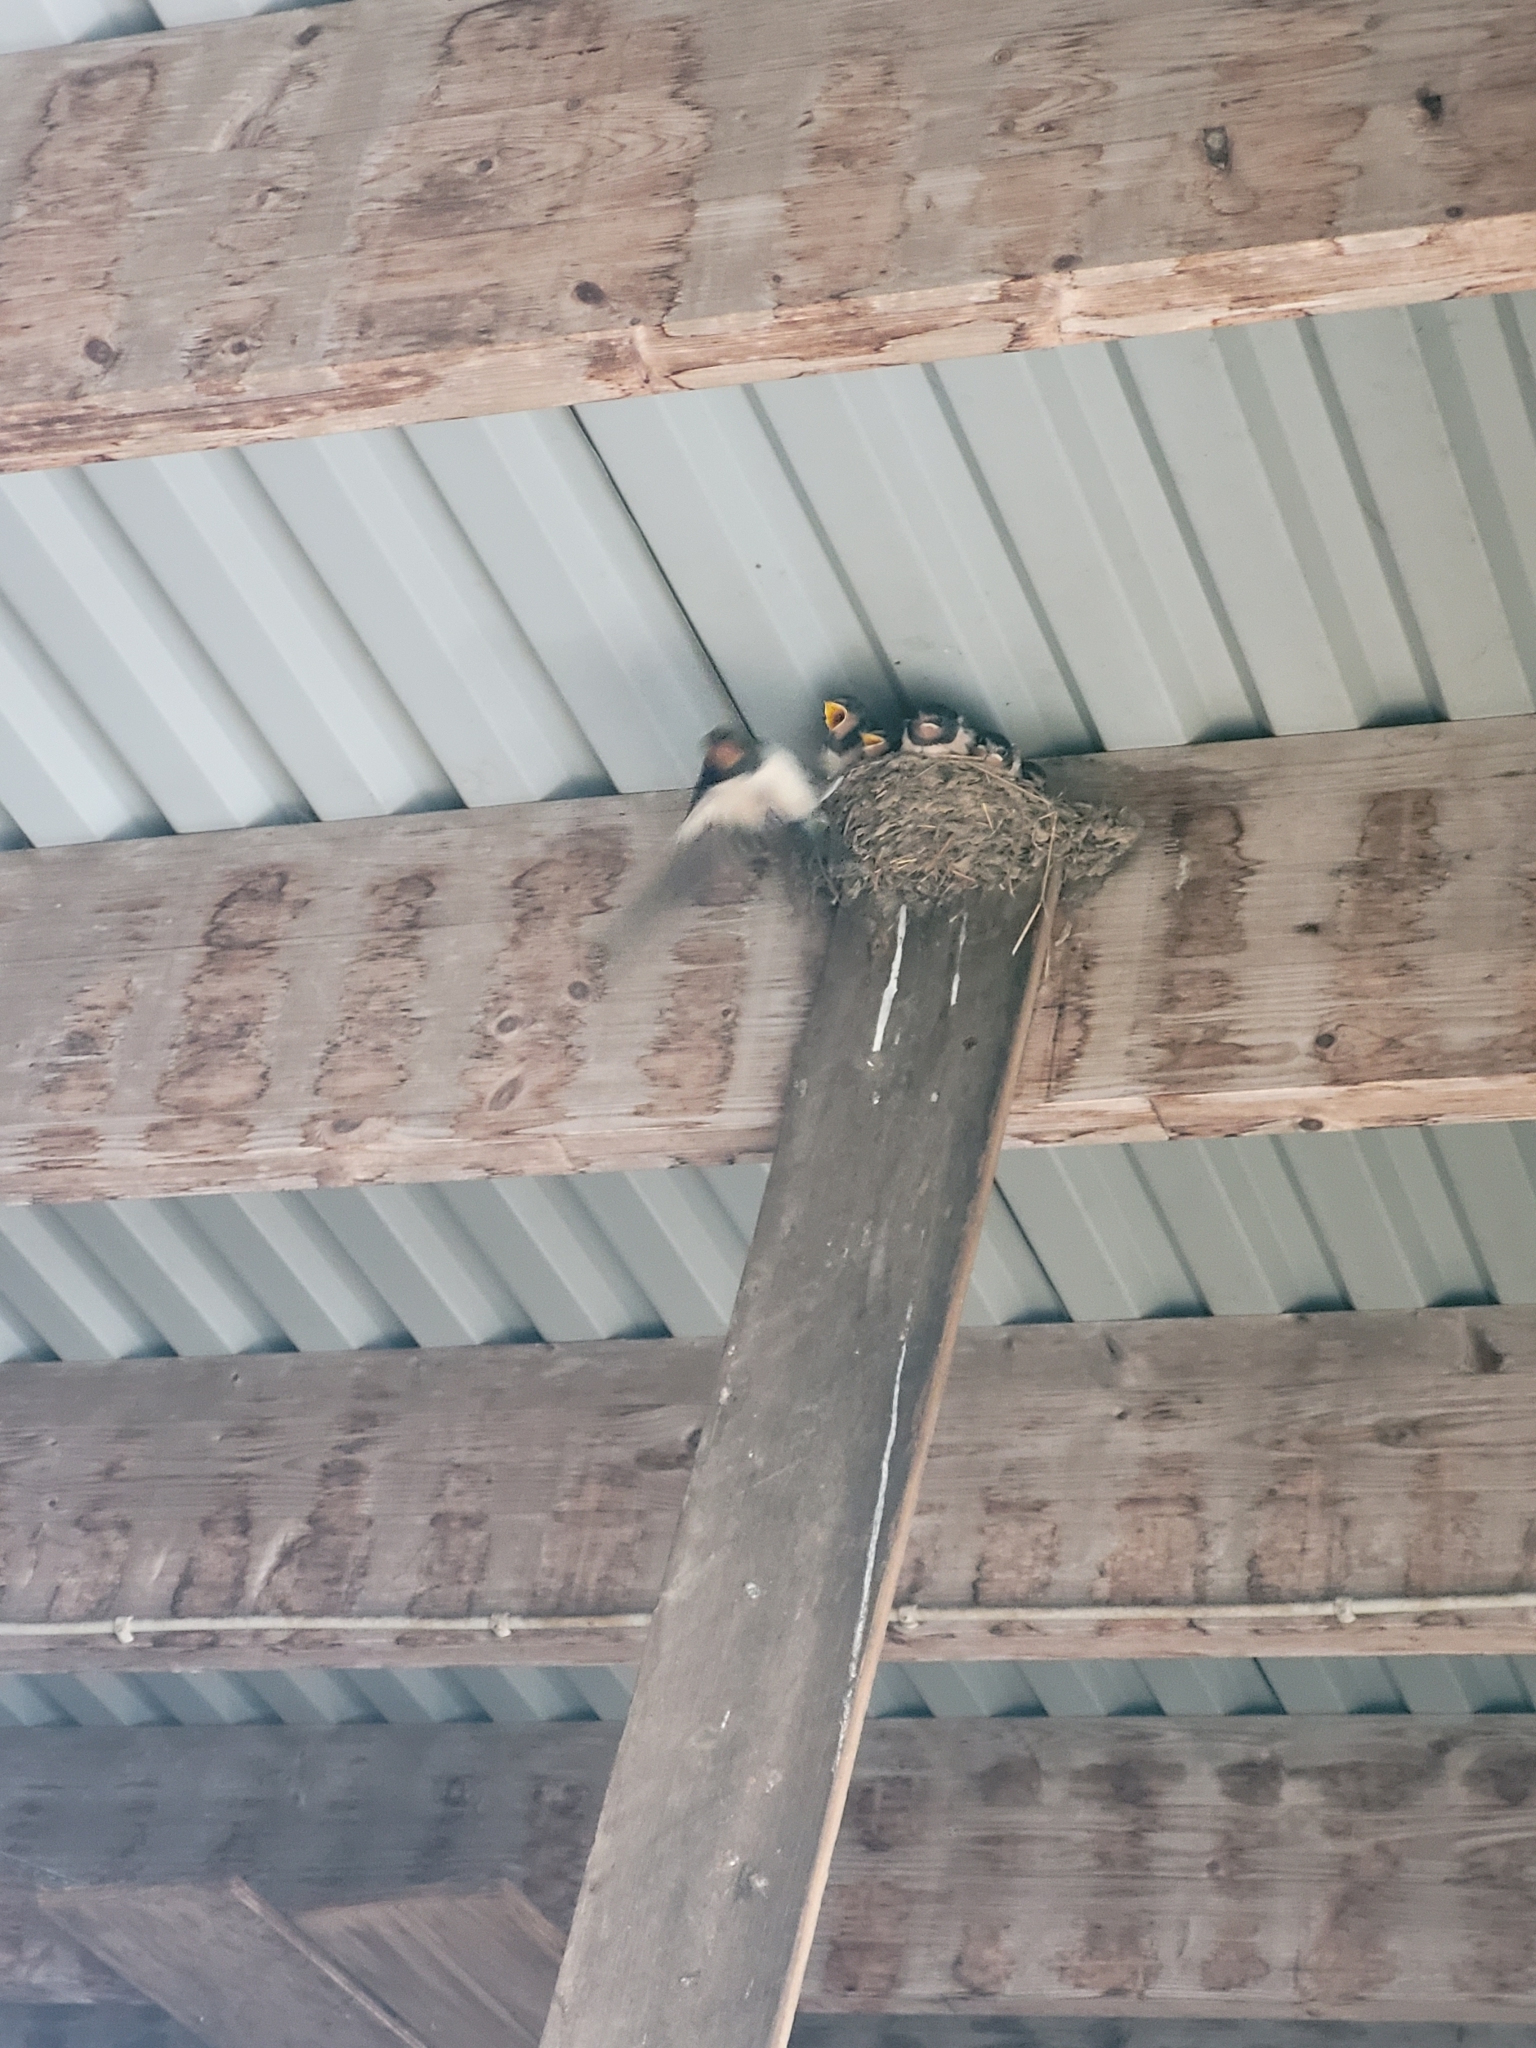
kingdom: Animalia
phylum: Chordata
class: Aves
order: Passeriformes
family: Hirundinidae
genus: Hirundo
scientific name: Hirundo rustica
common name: Barn swallow
